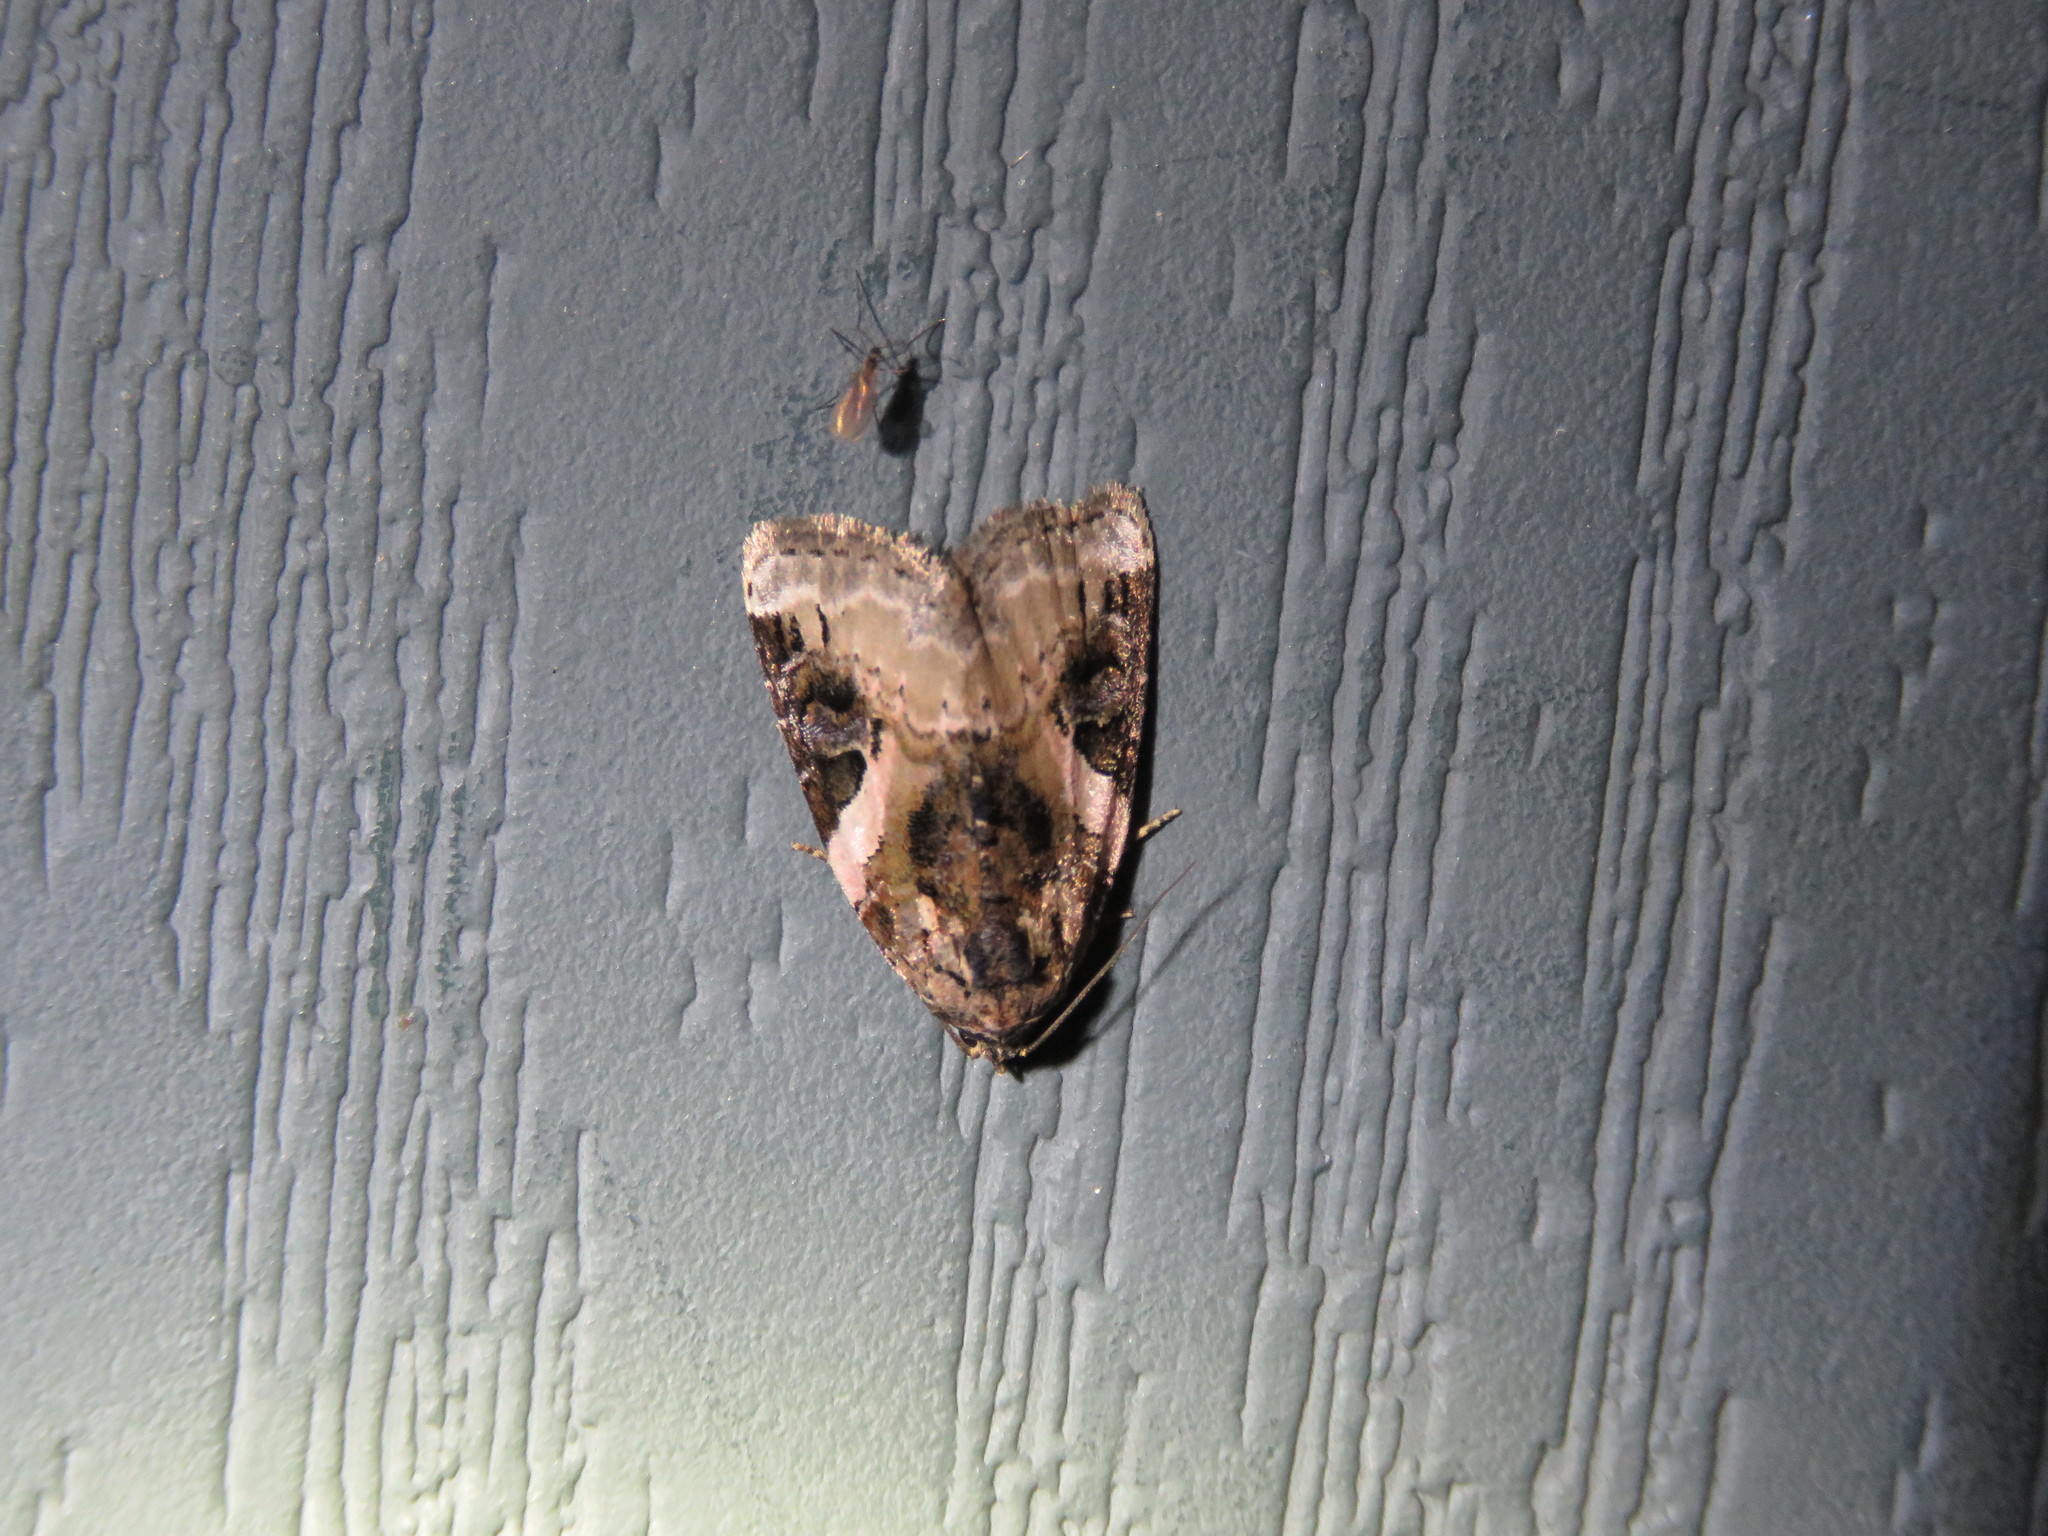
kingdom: Animalia
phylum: Arthropoda
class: Insecta
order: Lepidoptera
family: Noctuidae
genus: Pseudeustrotia
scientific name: Pseudeustrotia carneola
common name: Pink-barred lithacodia moth
